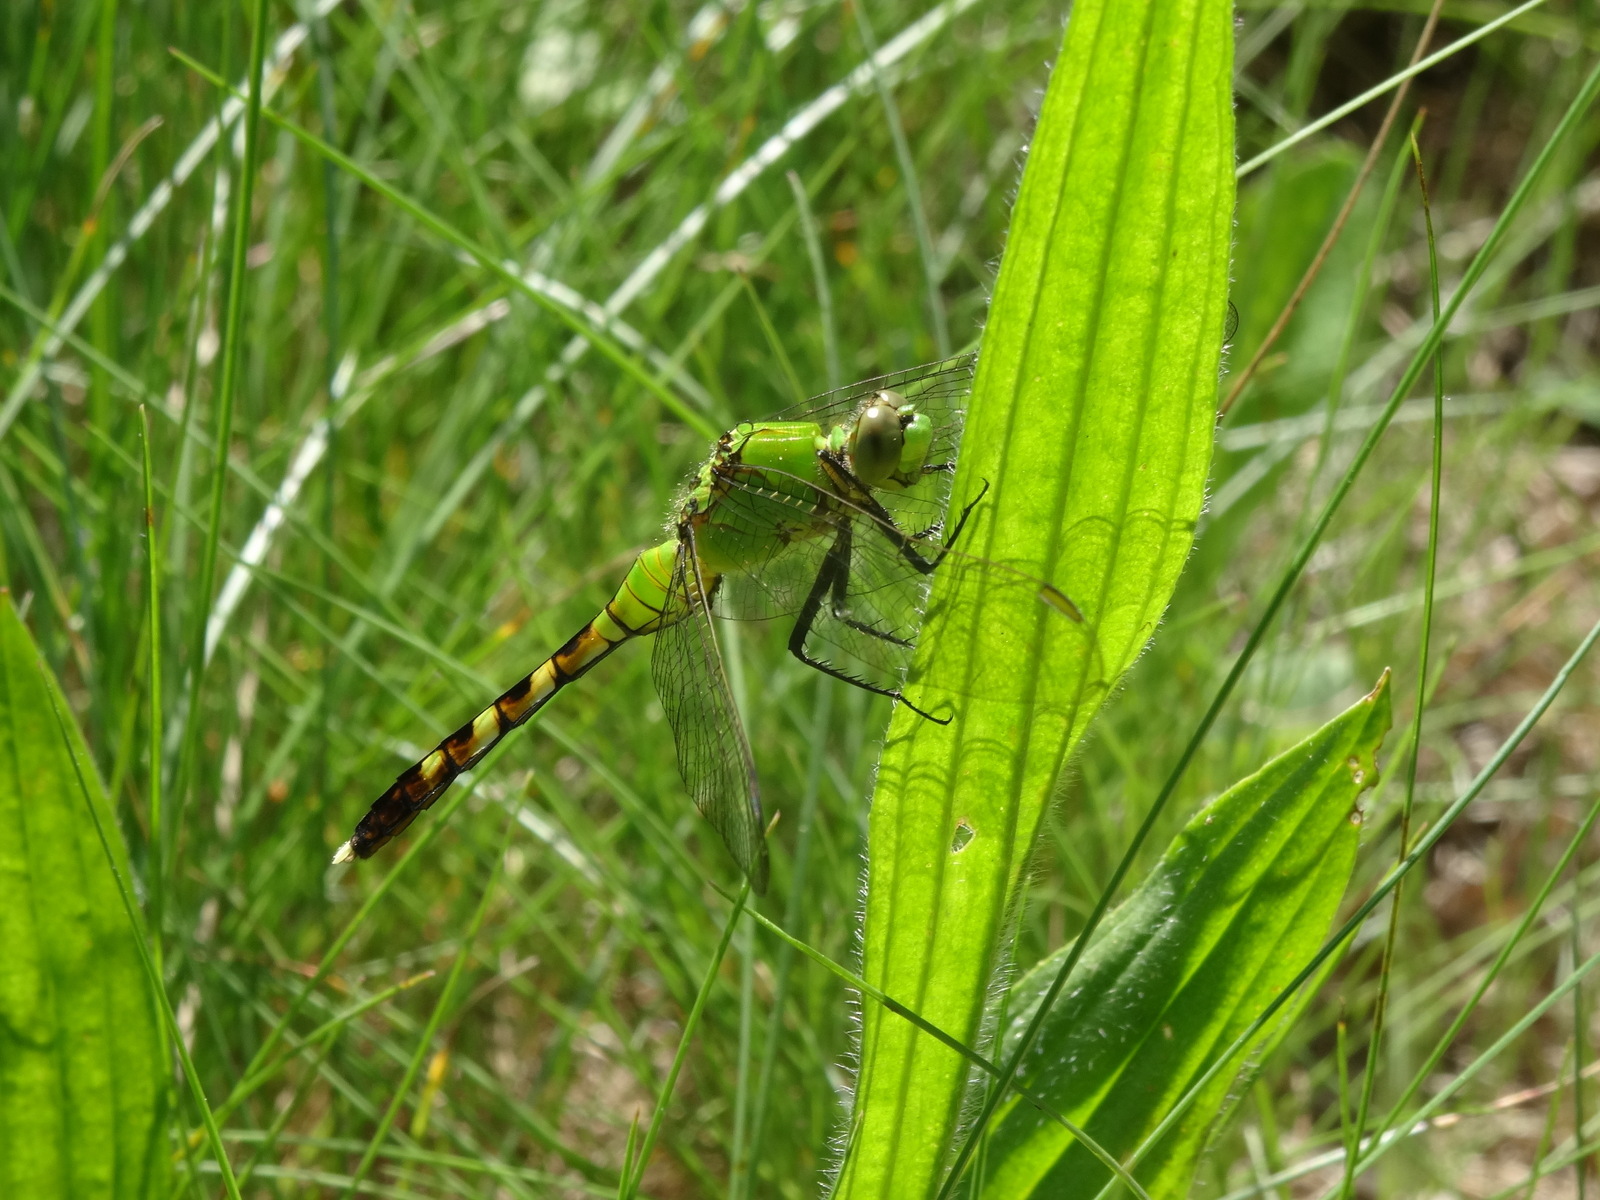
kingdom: Animalia
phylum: Arthropoda
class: Insecta
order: Odonata
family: Libellulidae
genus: Erythemis
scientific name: Erythemis simplicicollis
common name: Eastern pondhawk
